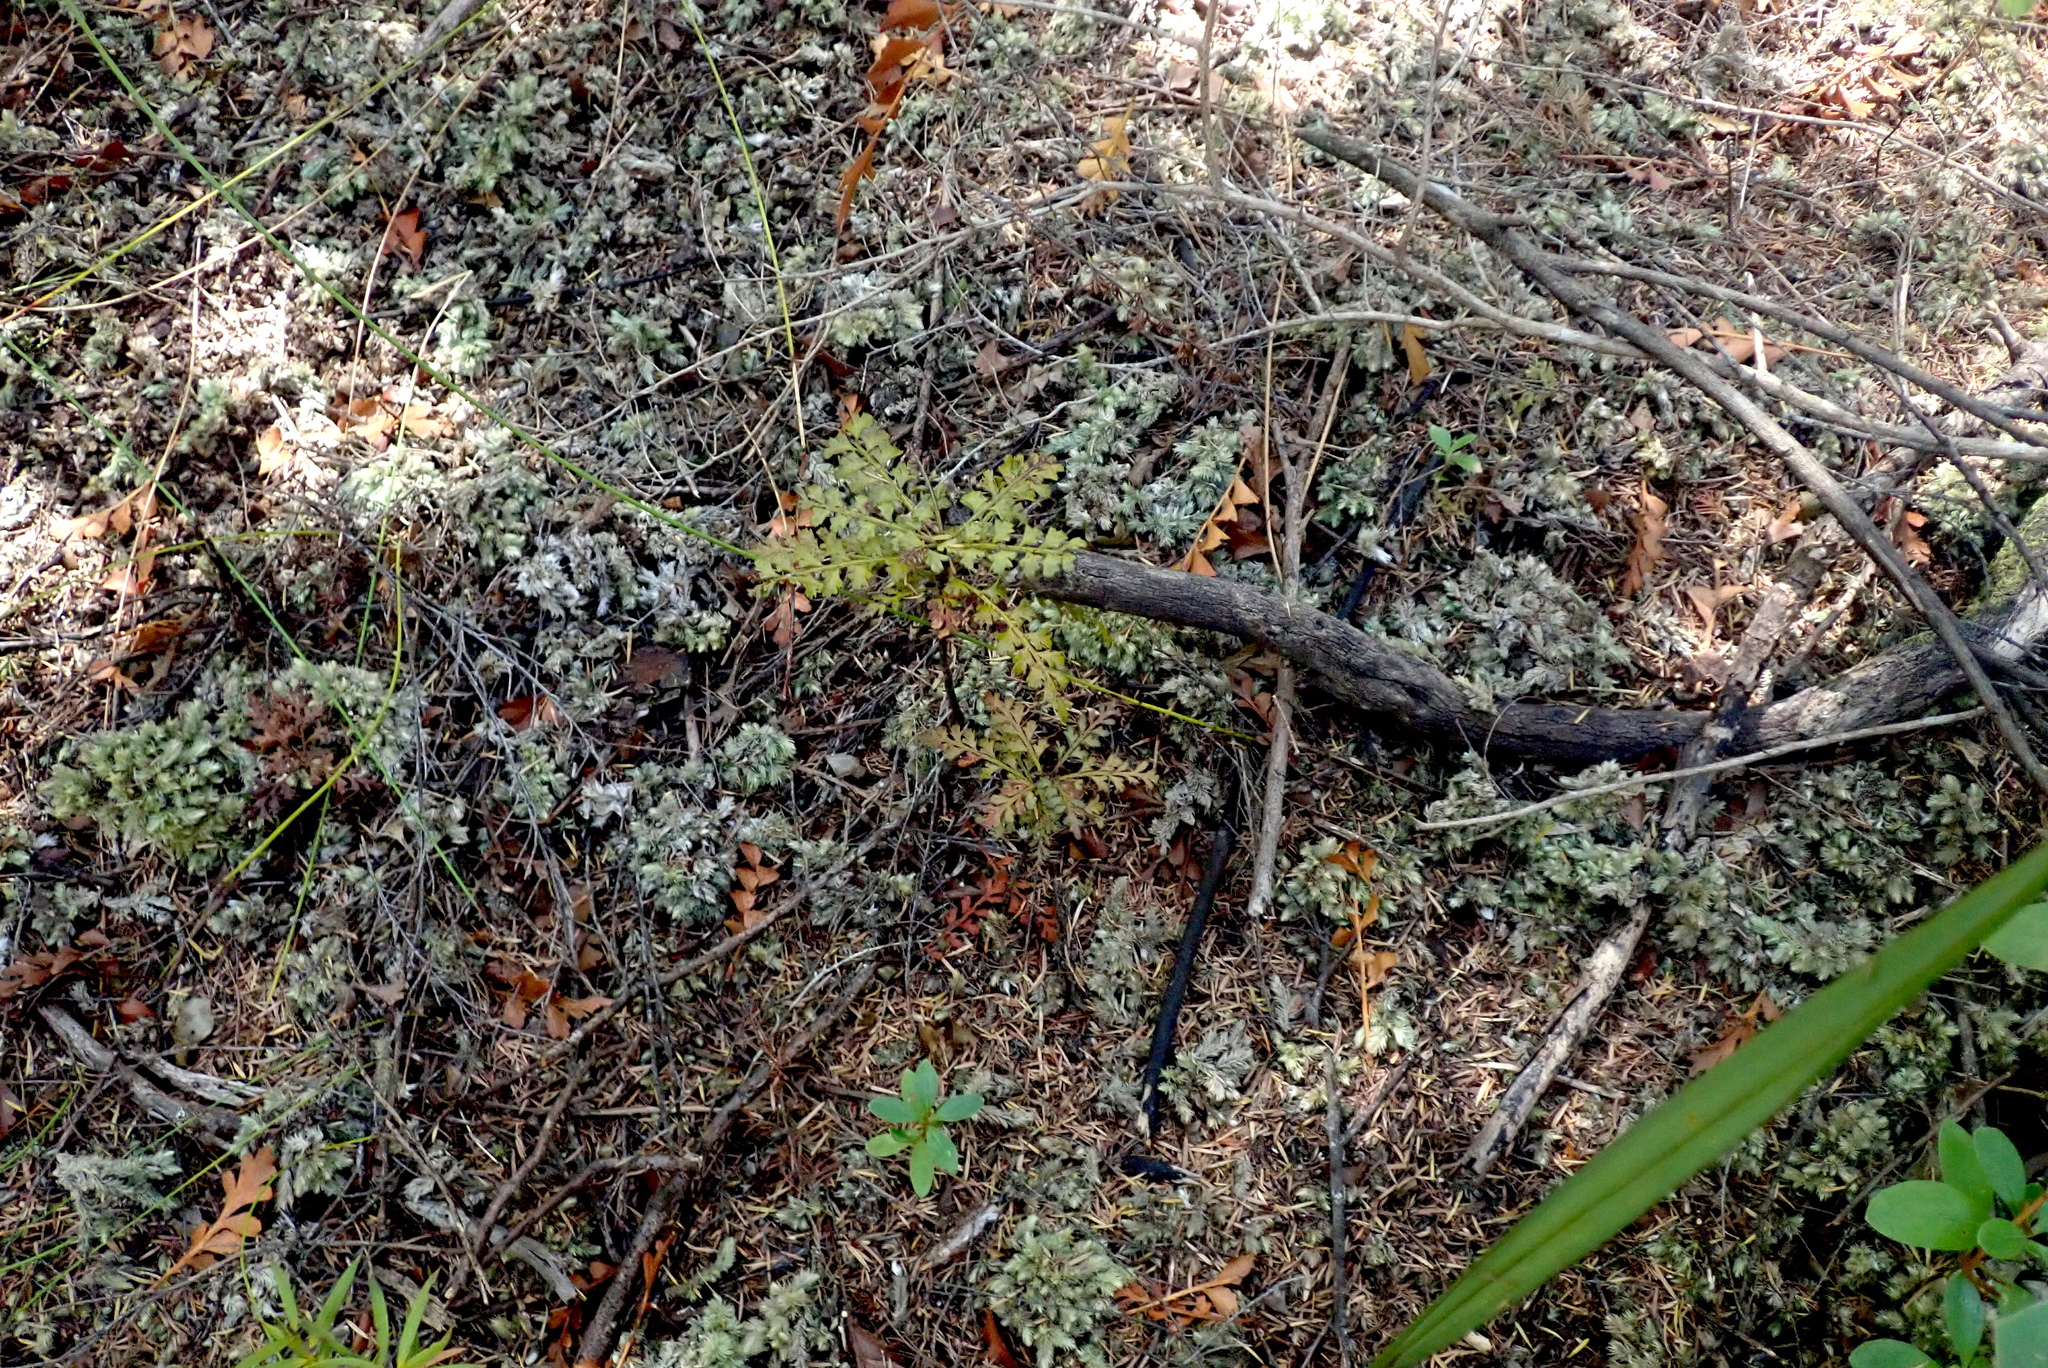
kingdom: Plantae
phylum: Tracheophyta
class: Pinopsida
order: Pinales
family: Phyllocladaceae
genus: Phyllocladus
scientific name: Phyllocladus trichomanoides
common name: Celery pine
